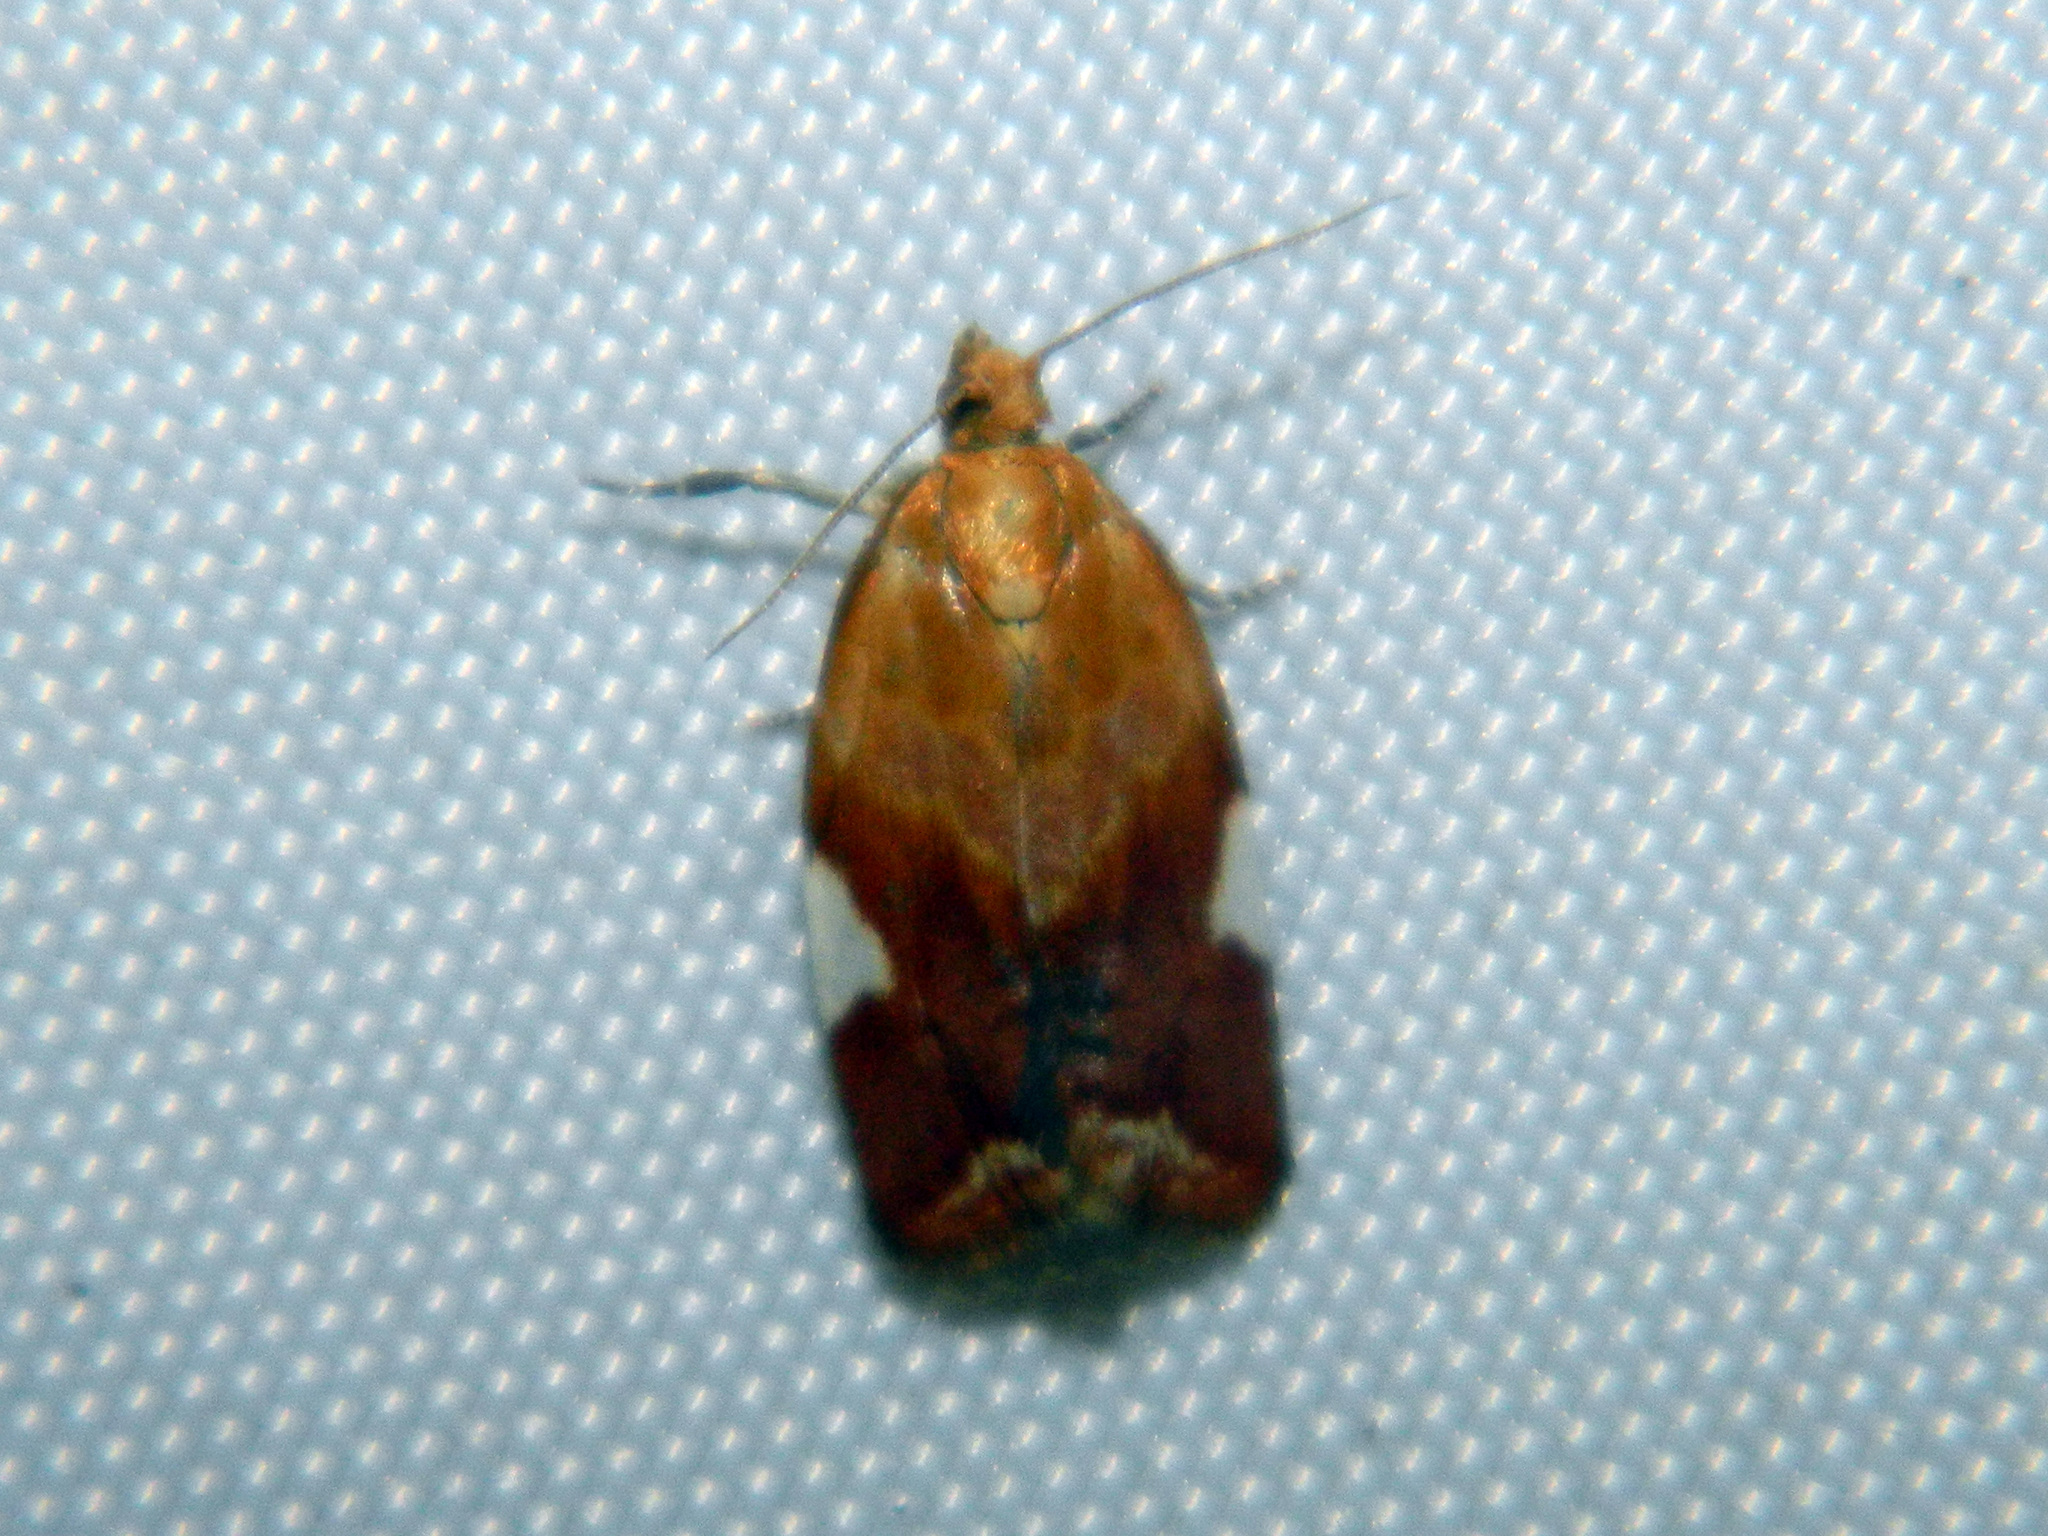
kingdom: Animalia
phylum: Arthropoda
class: Insecta
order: Lepidoptera
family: Tortricidae
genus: Clepsis
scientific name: Clepsis persicana
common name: White triangle tortrix
